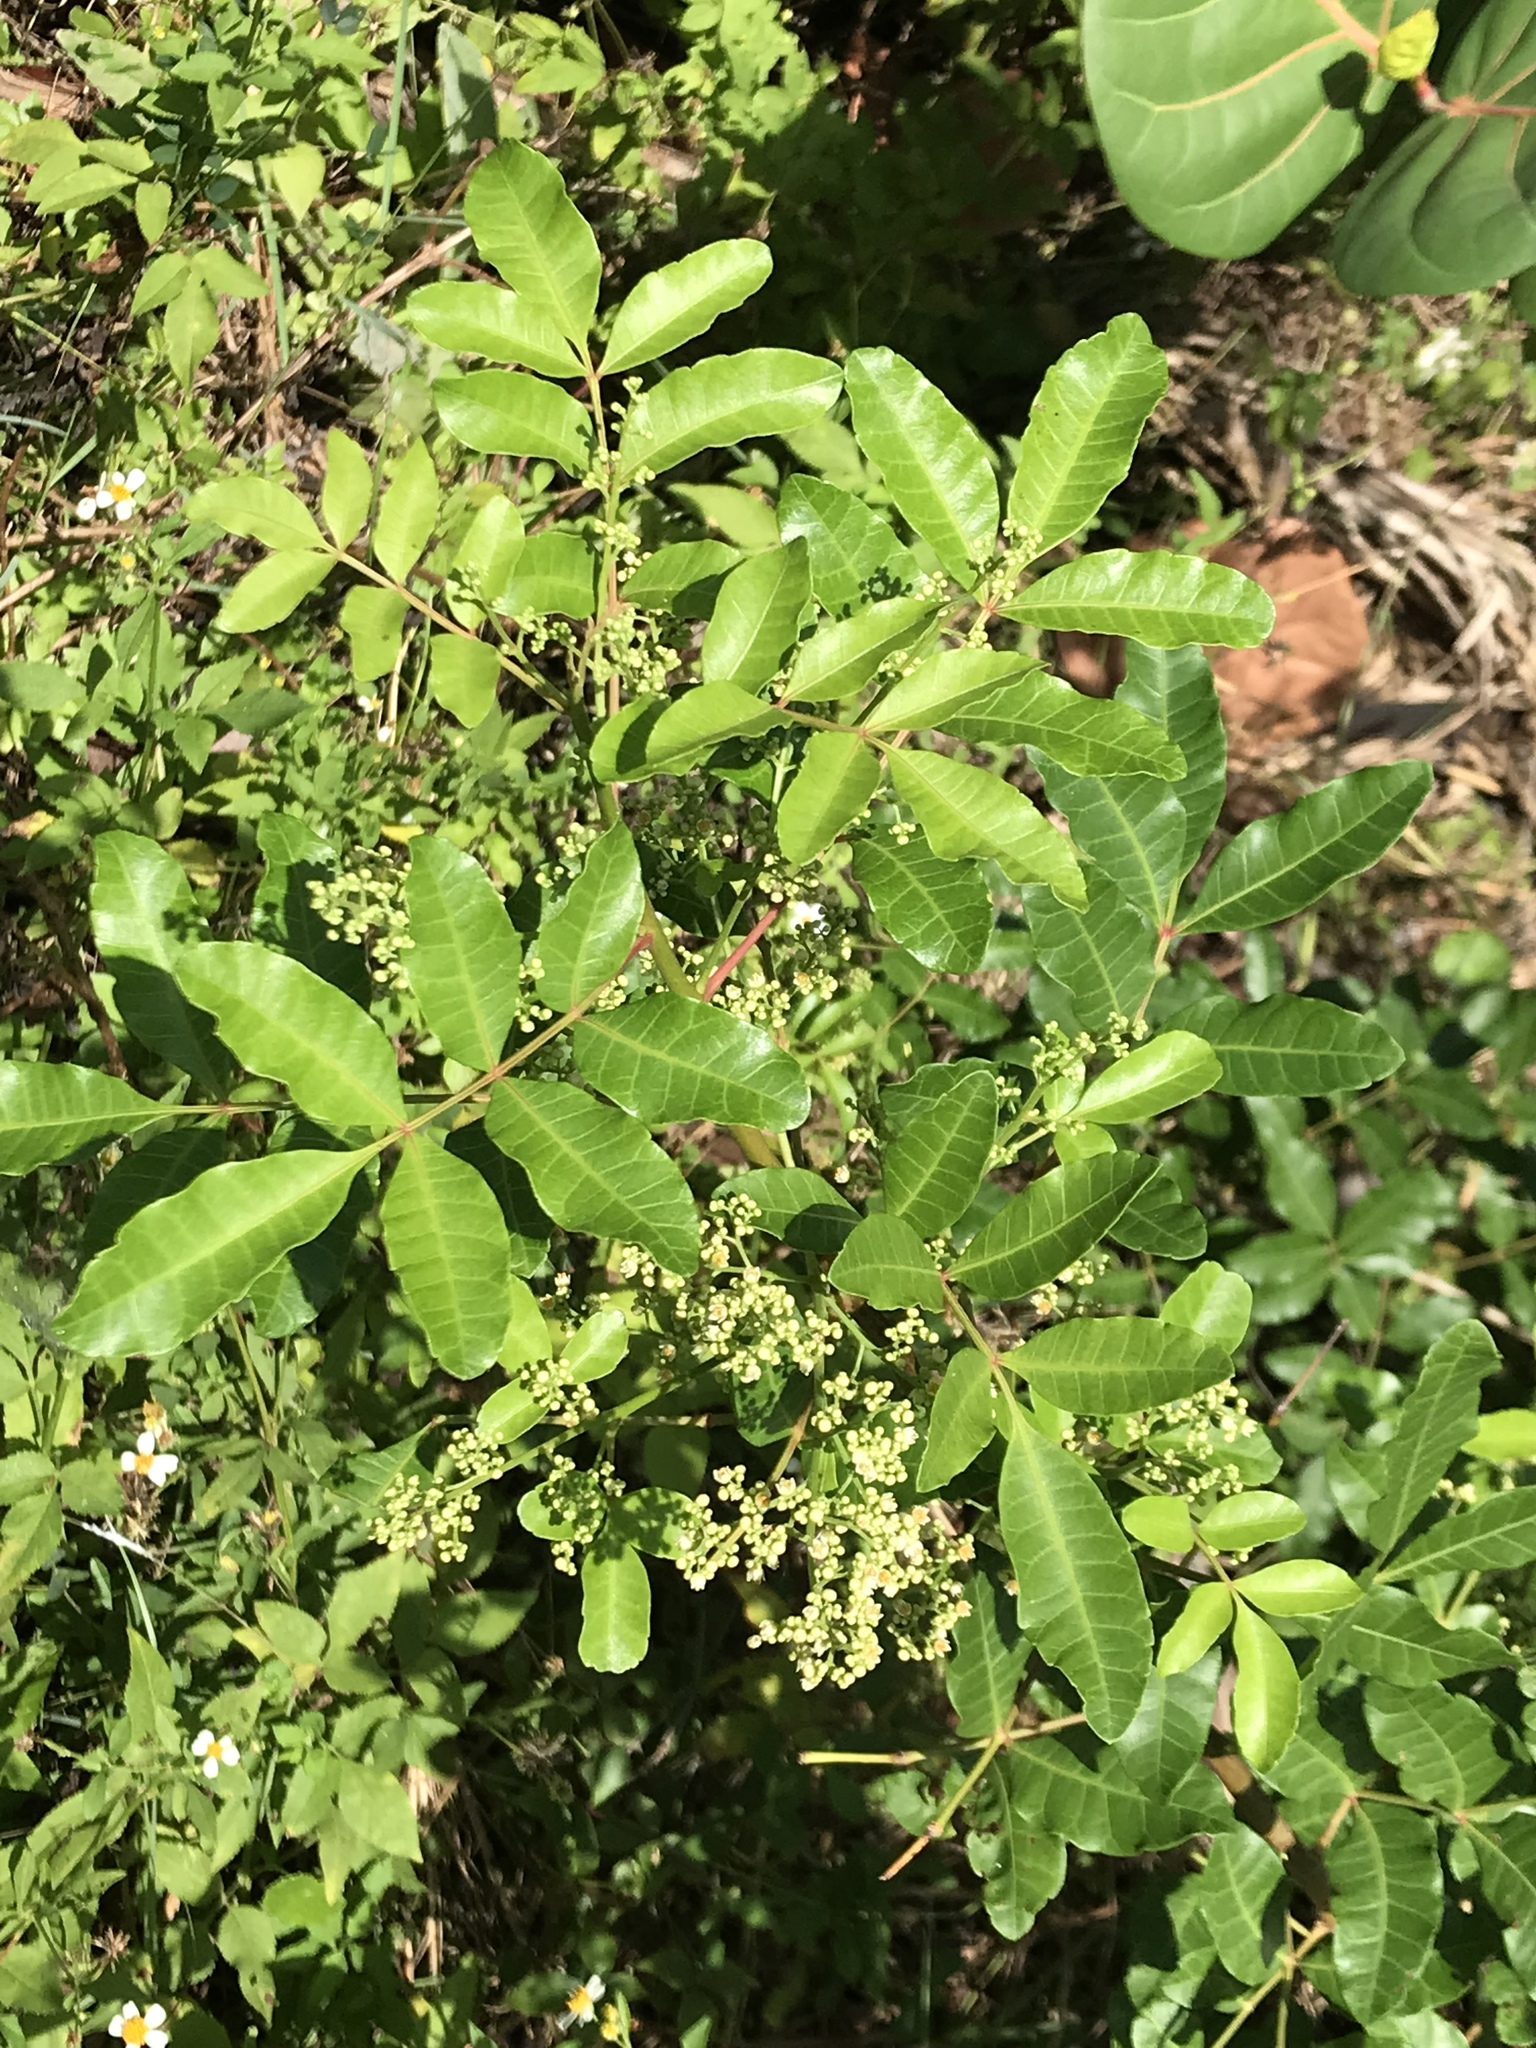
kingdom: Plantae
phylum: Tracheophyta
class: Magnoliopsida
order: Sapindales
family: Anacardiaceae
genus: Schinus
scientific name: Schinus terebinthifolia
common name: Brazilian peppertree
